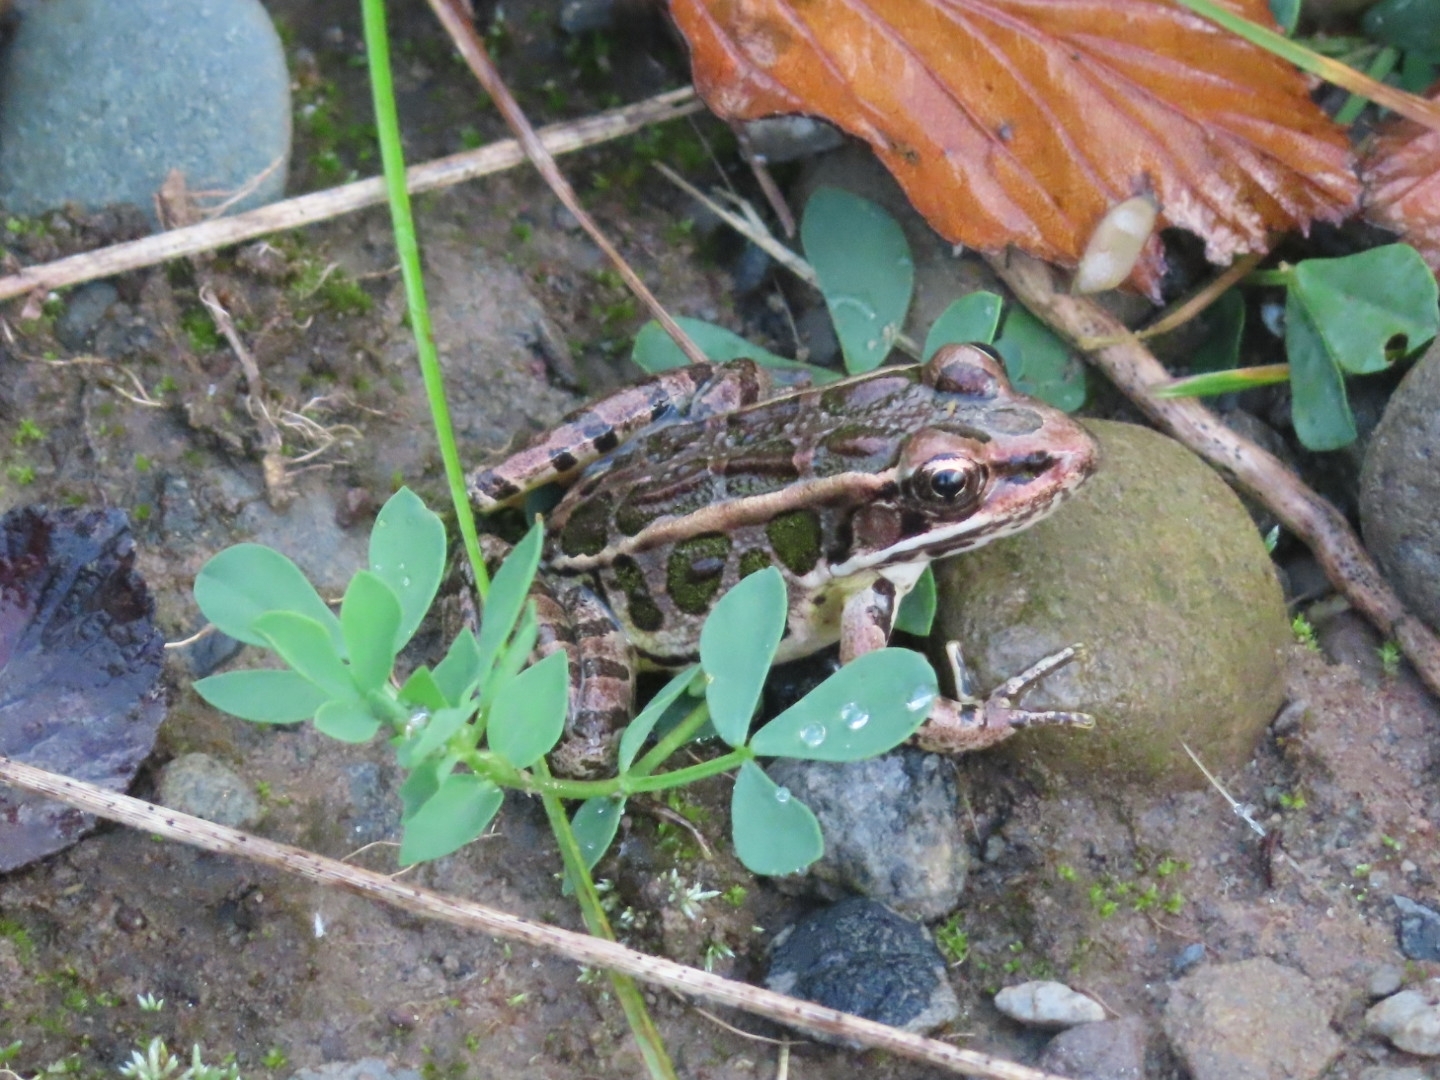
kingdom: Animalia
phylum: Chordata
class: Amphibia
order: Anura
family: Ranidae
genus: Lithobates
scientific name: Lithobates palustris
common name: Pickerel frog
